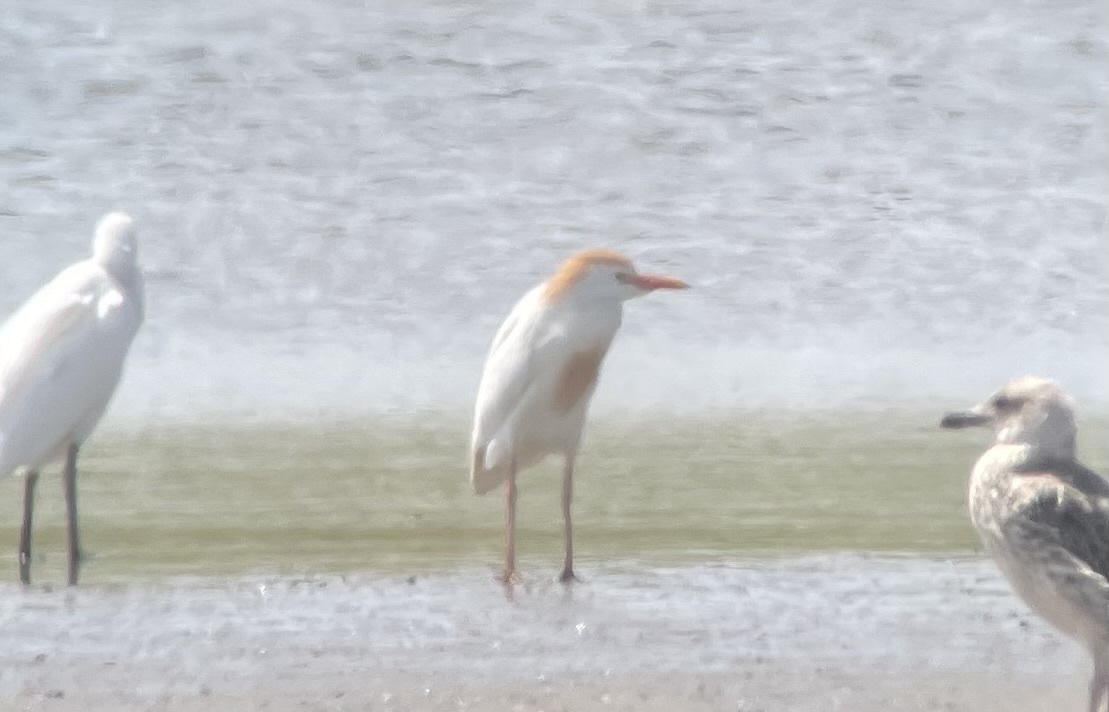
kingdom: Animalia
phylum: Chordata
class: Aves
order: Pelecaniformes
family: Ardeidae
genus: Bubulcus
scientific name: Bubulcus ibis
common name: Cattle egret
